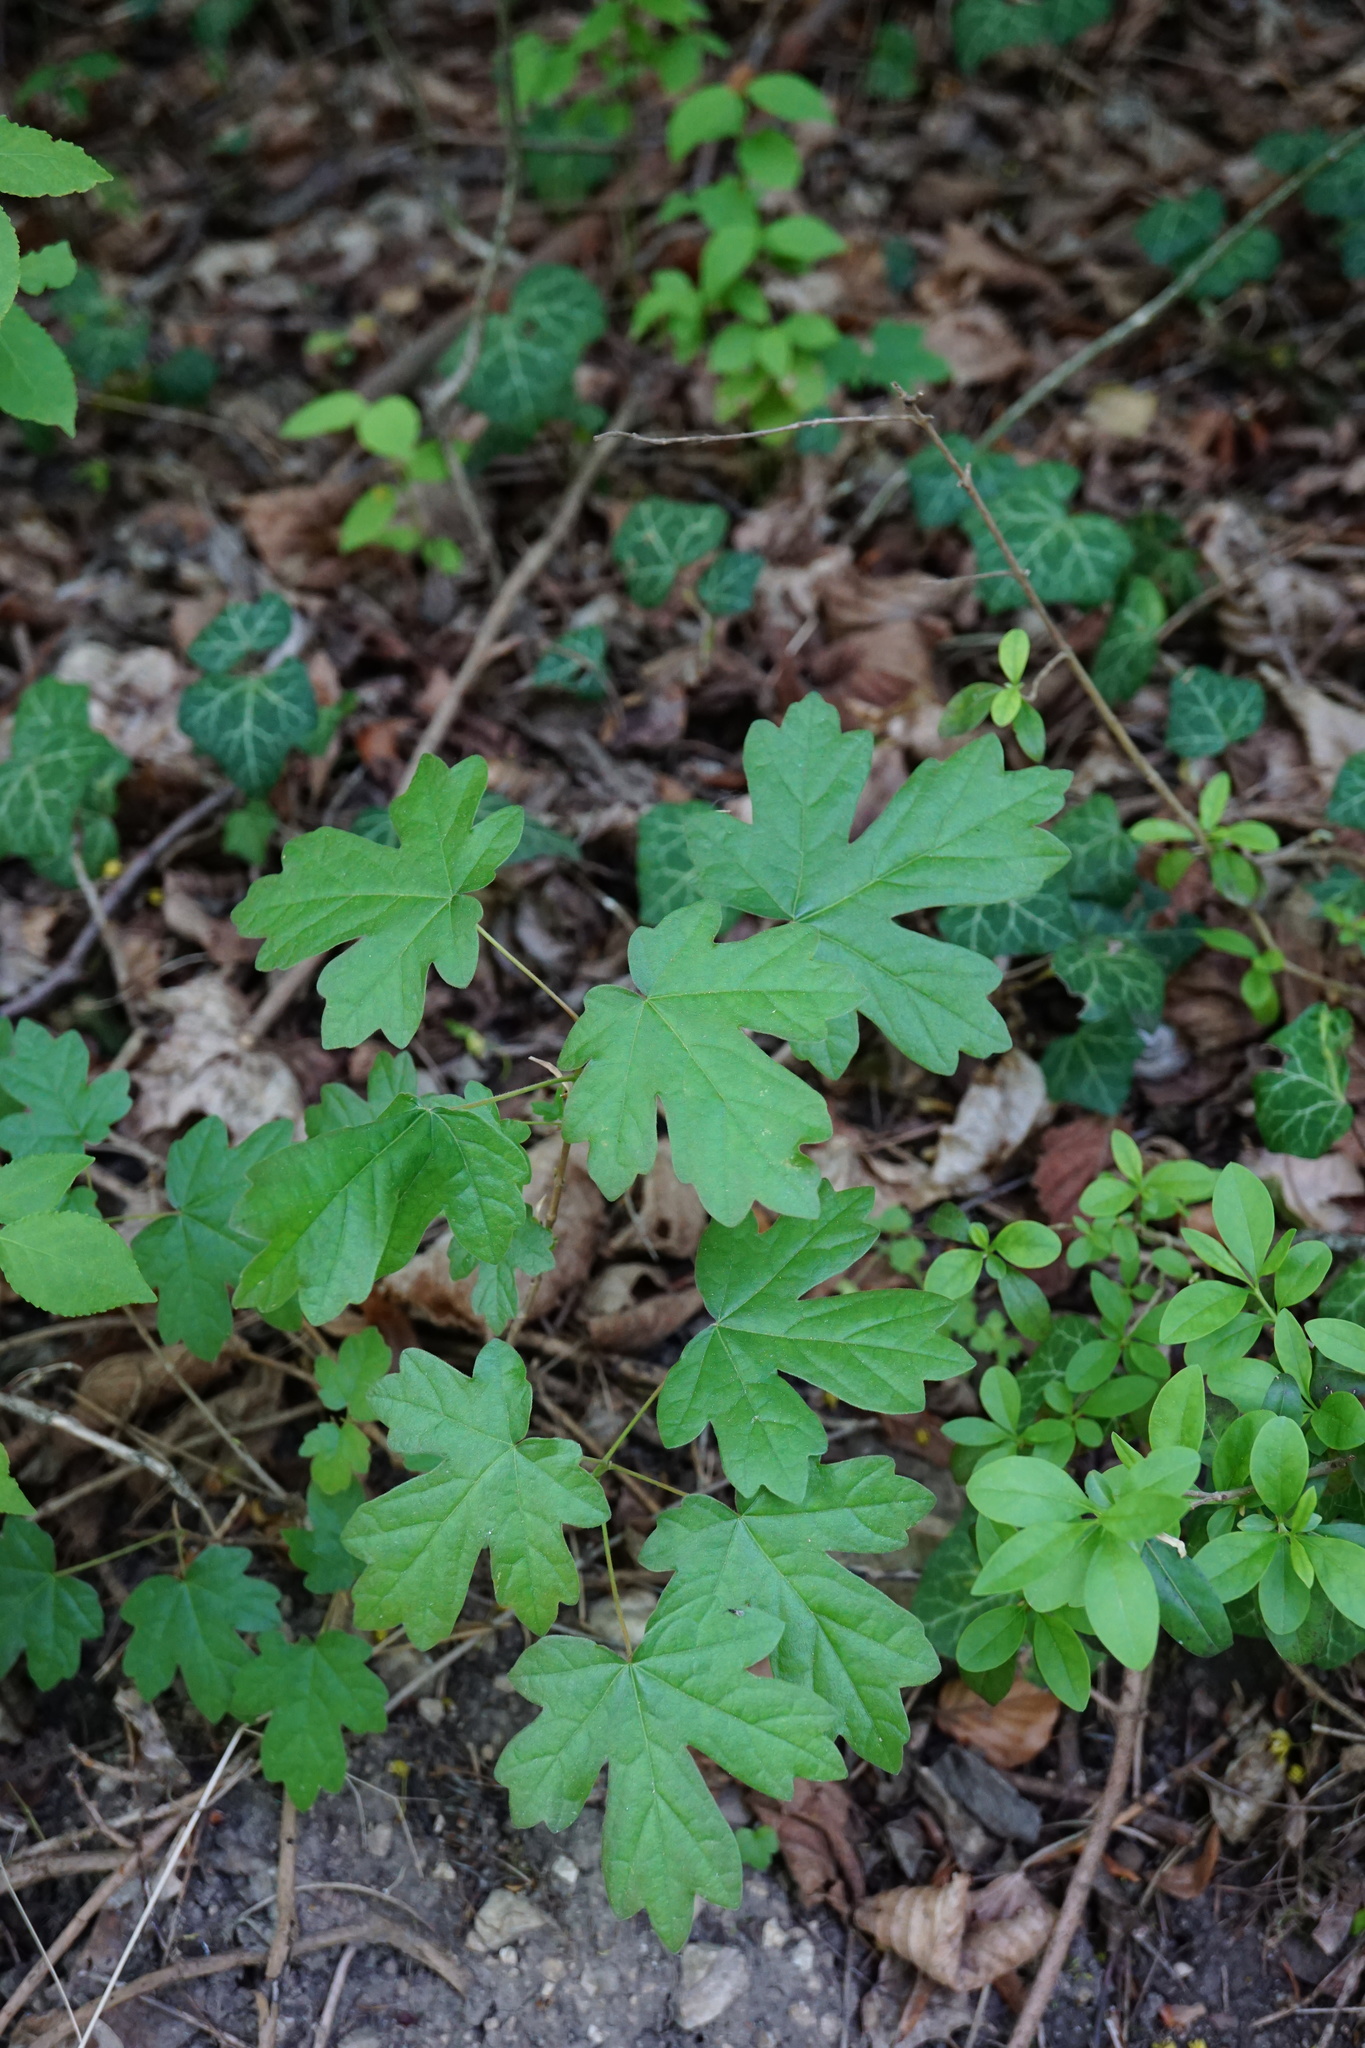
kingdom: Plantae
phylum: Tracheophyta
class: Magnoliopsida
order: Sapindales
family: Sapindaceae
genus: Acer
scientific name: Acer campestre
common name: Field maple
